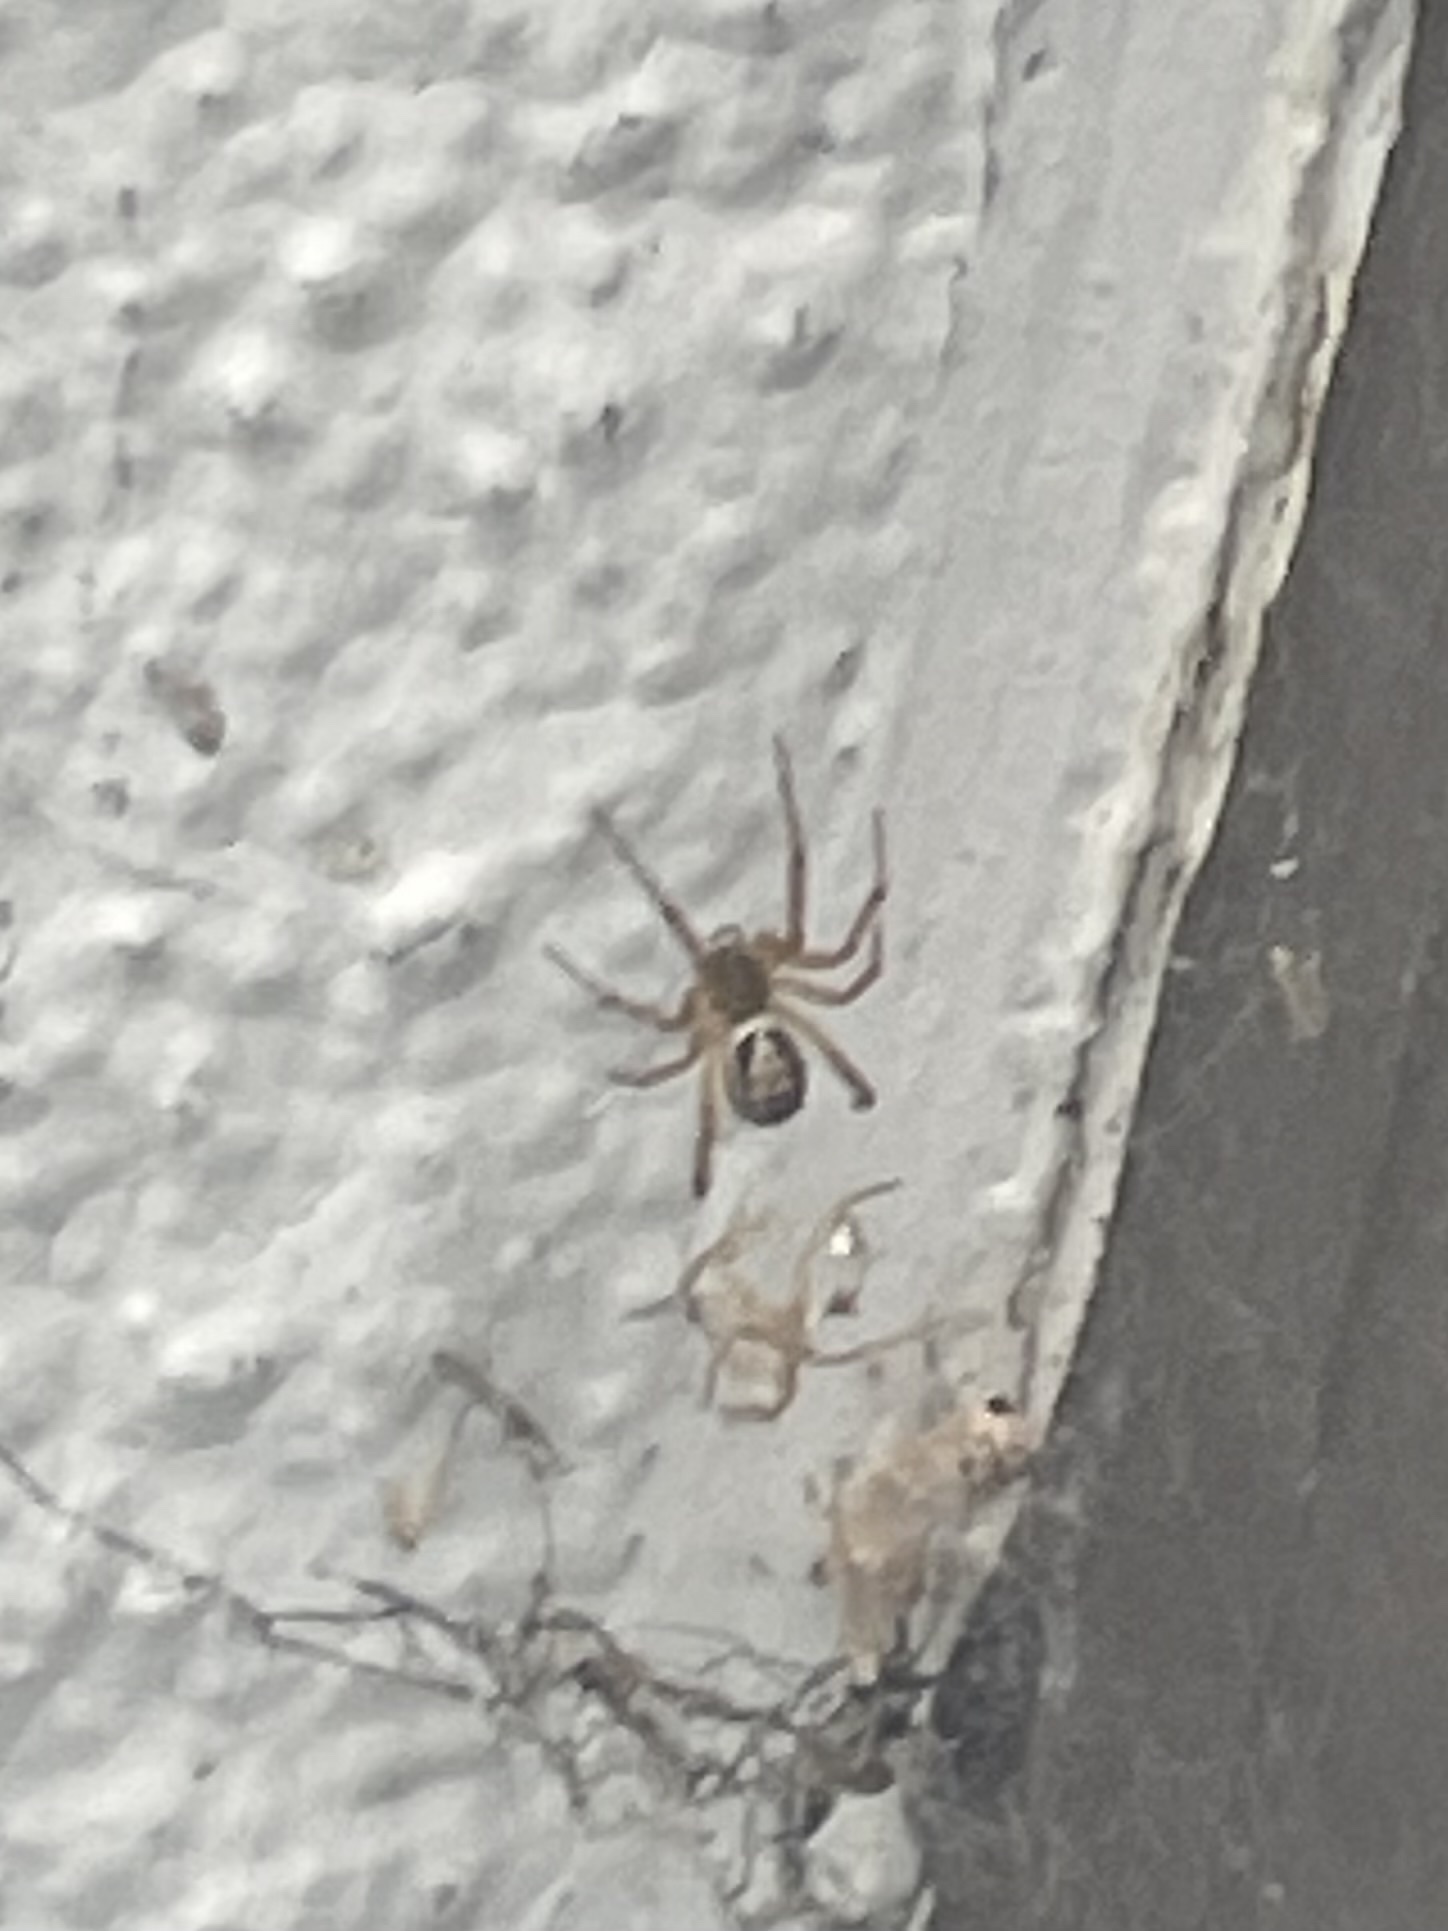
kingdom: Animalia
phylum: Arthropoda
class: Arachnida
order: Araneae
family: Theridiidae
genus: Steatoda
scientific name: Steatoda nobilis
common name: Cobweb weaver
